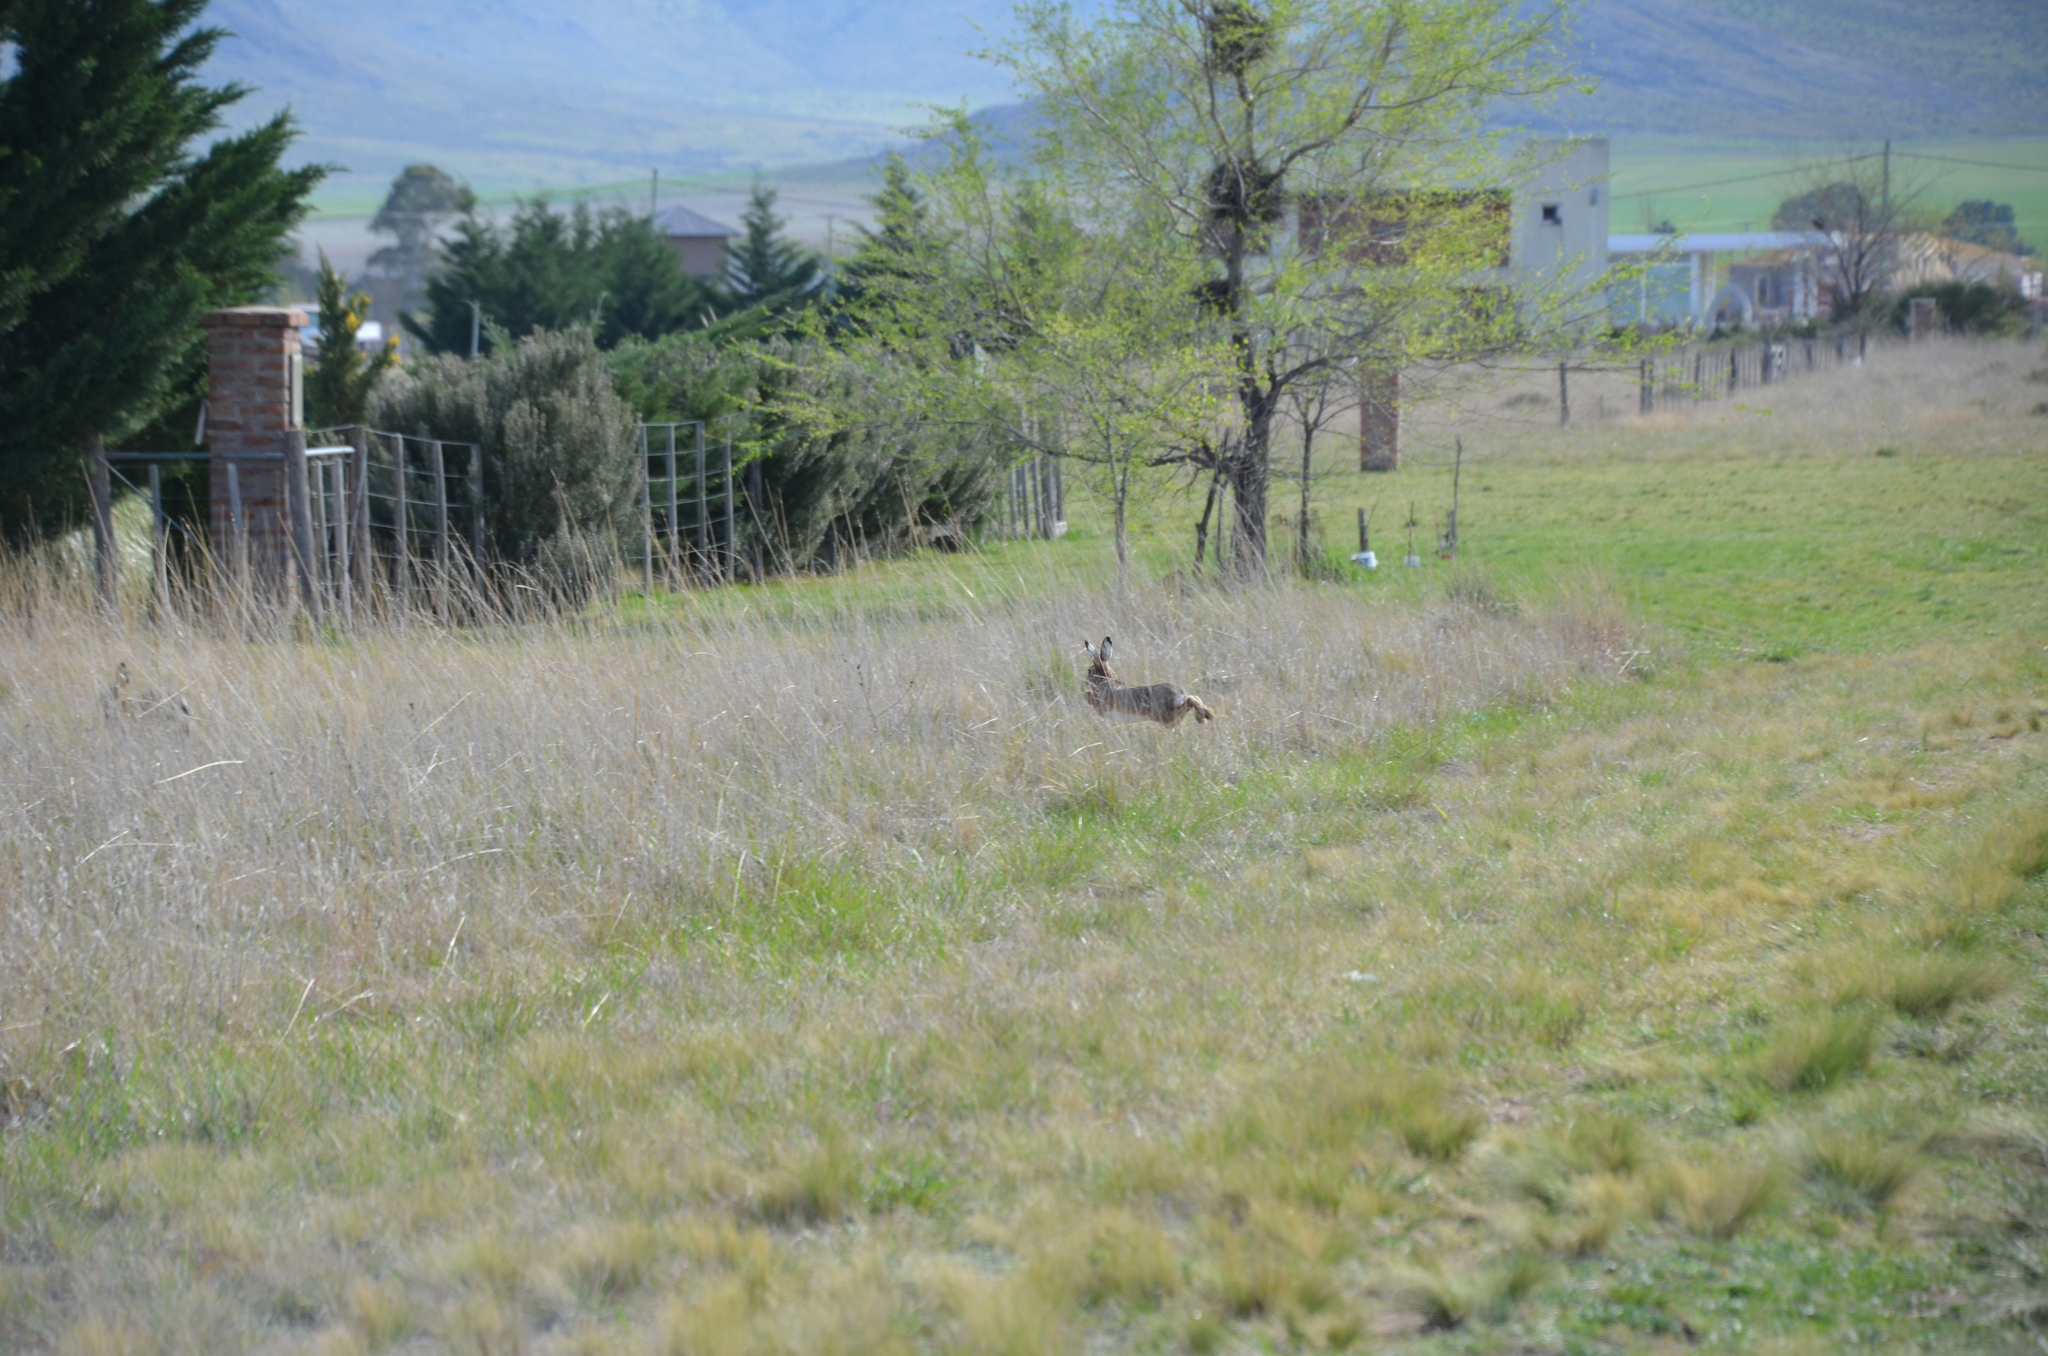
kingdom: Animalia
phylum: Chordata
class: Mammalia
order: Lagomorpha
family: Leporidae
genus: Lepus
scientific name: Lepus europaeus
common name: European hare
